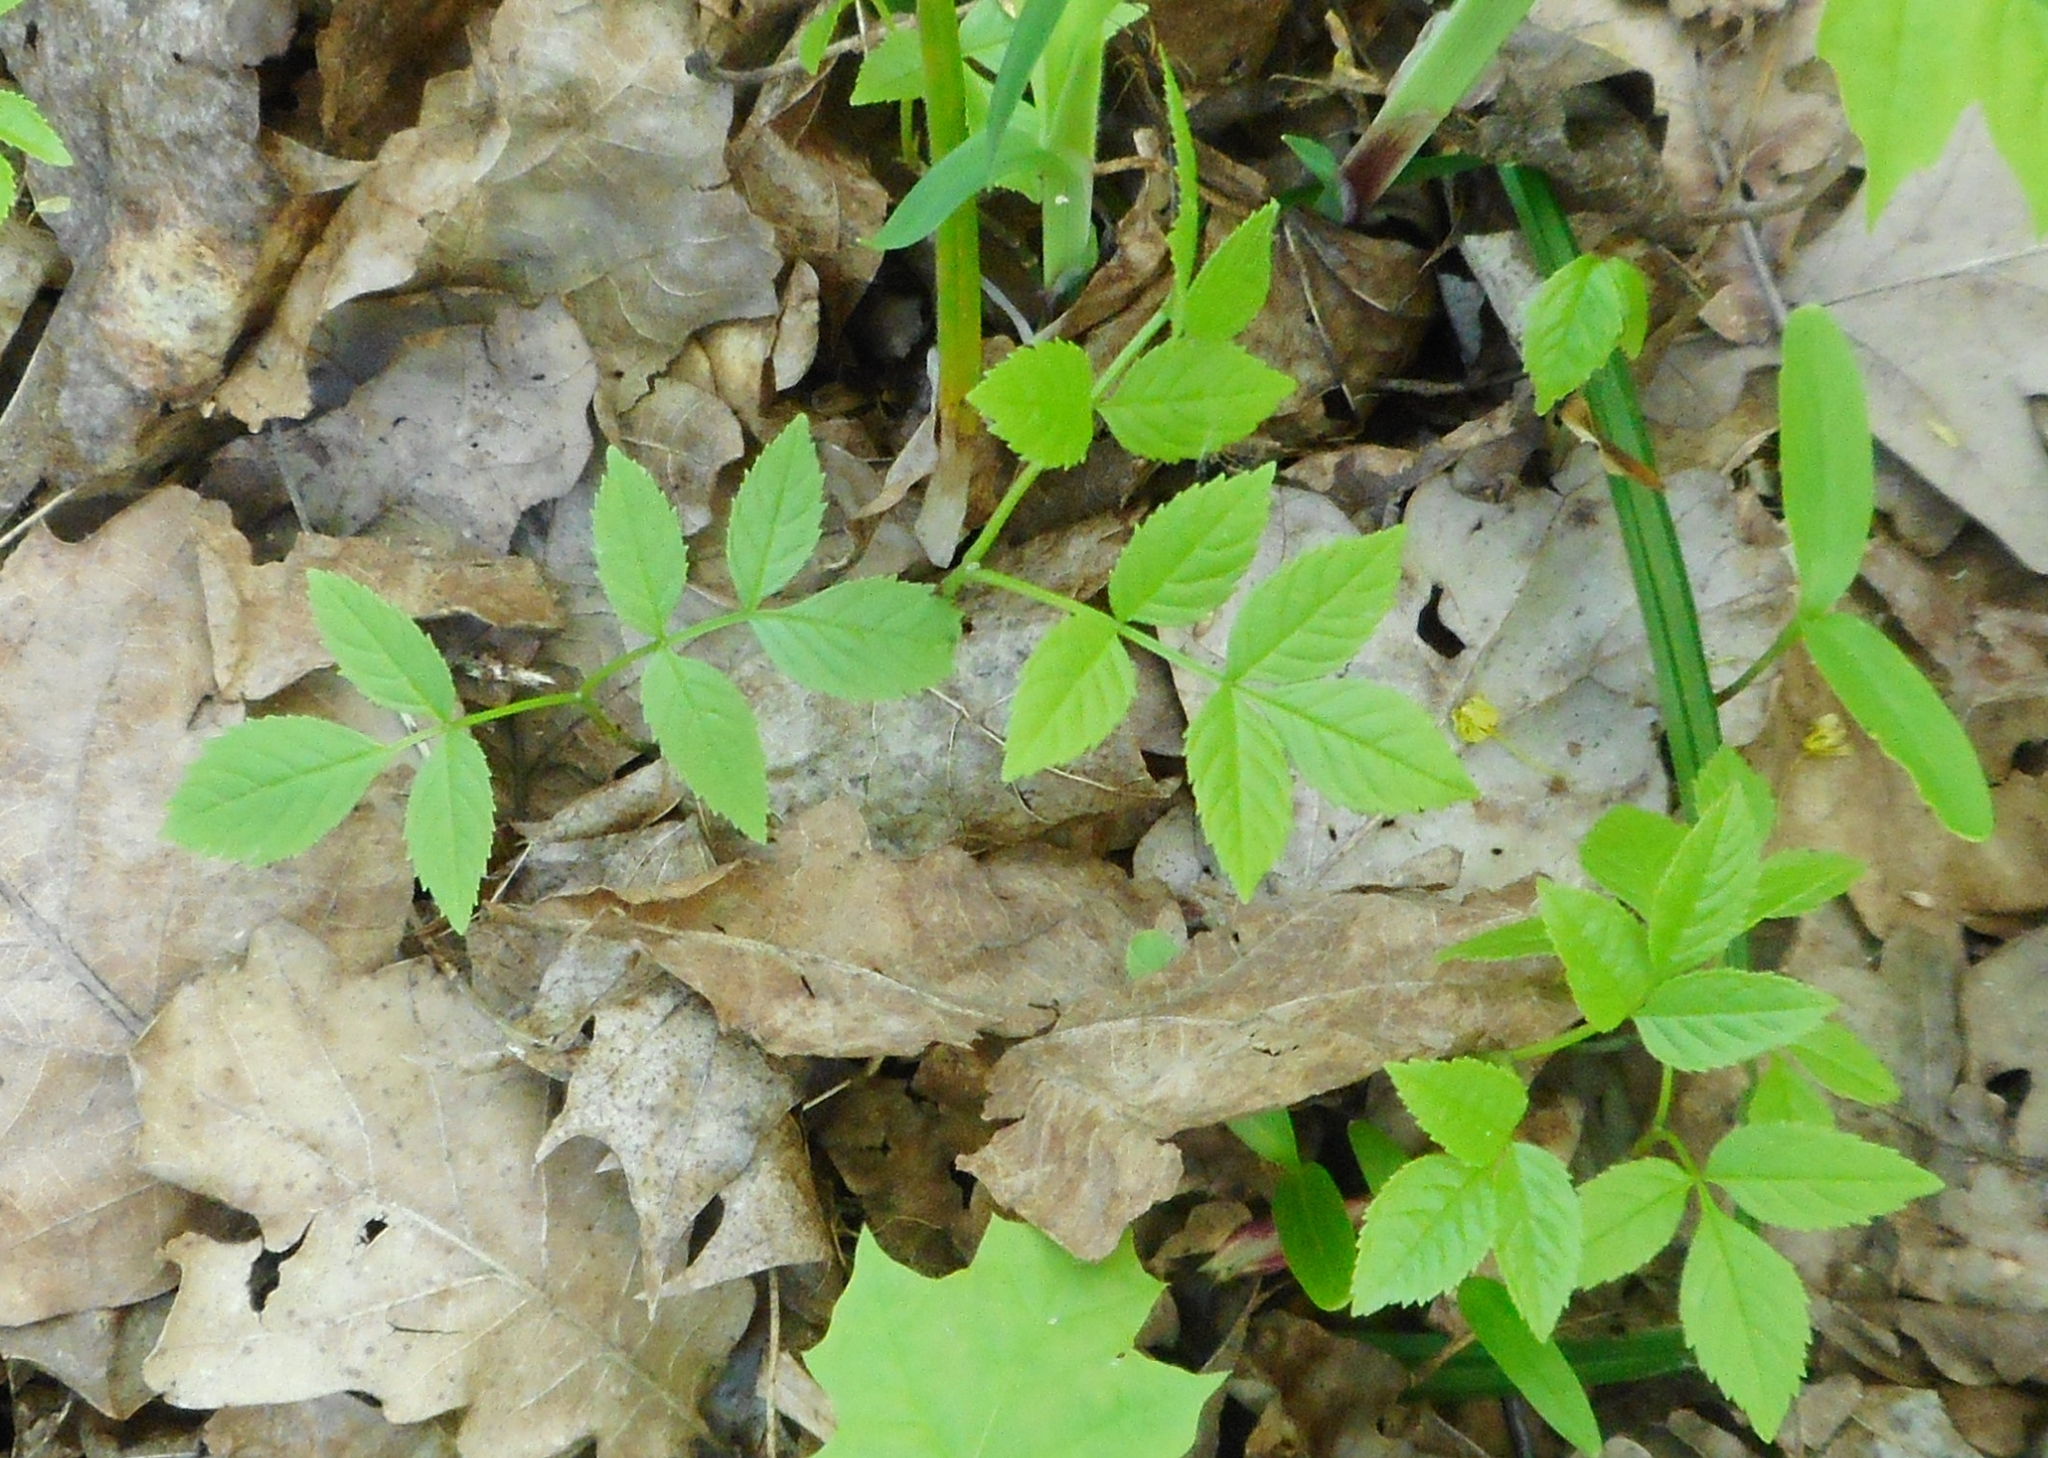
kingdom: Plantae
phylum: Tracheophyta
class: Magnoliopsida
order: Apiales
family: Apiaceae
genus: Aegopodium
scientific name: Aegopodium podagraria
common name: Ground-elder
